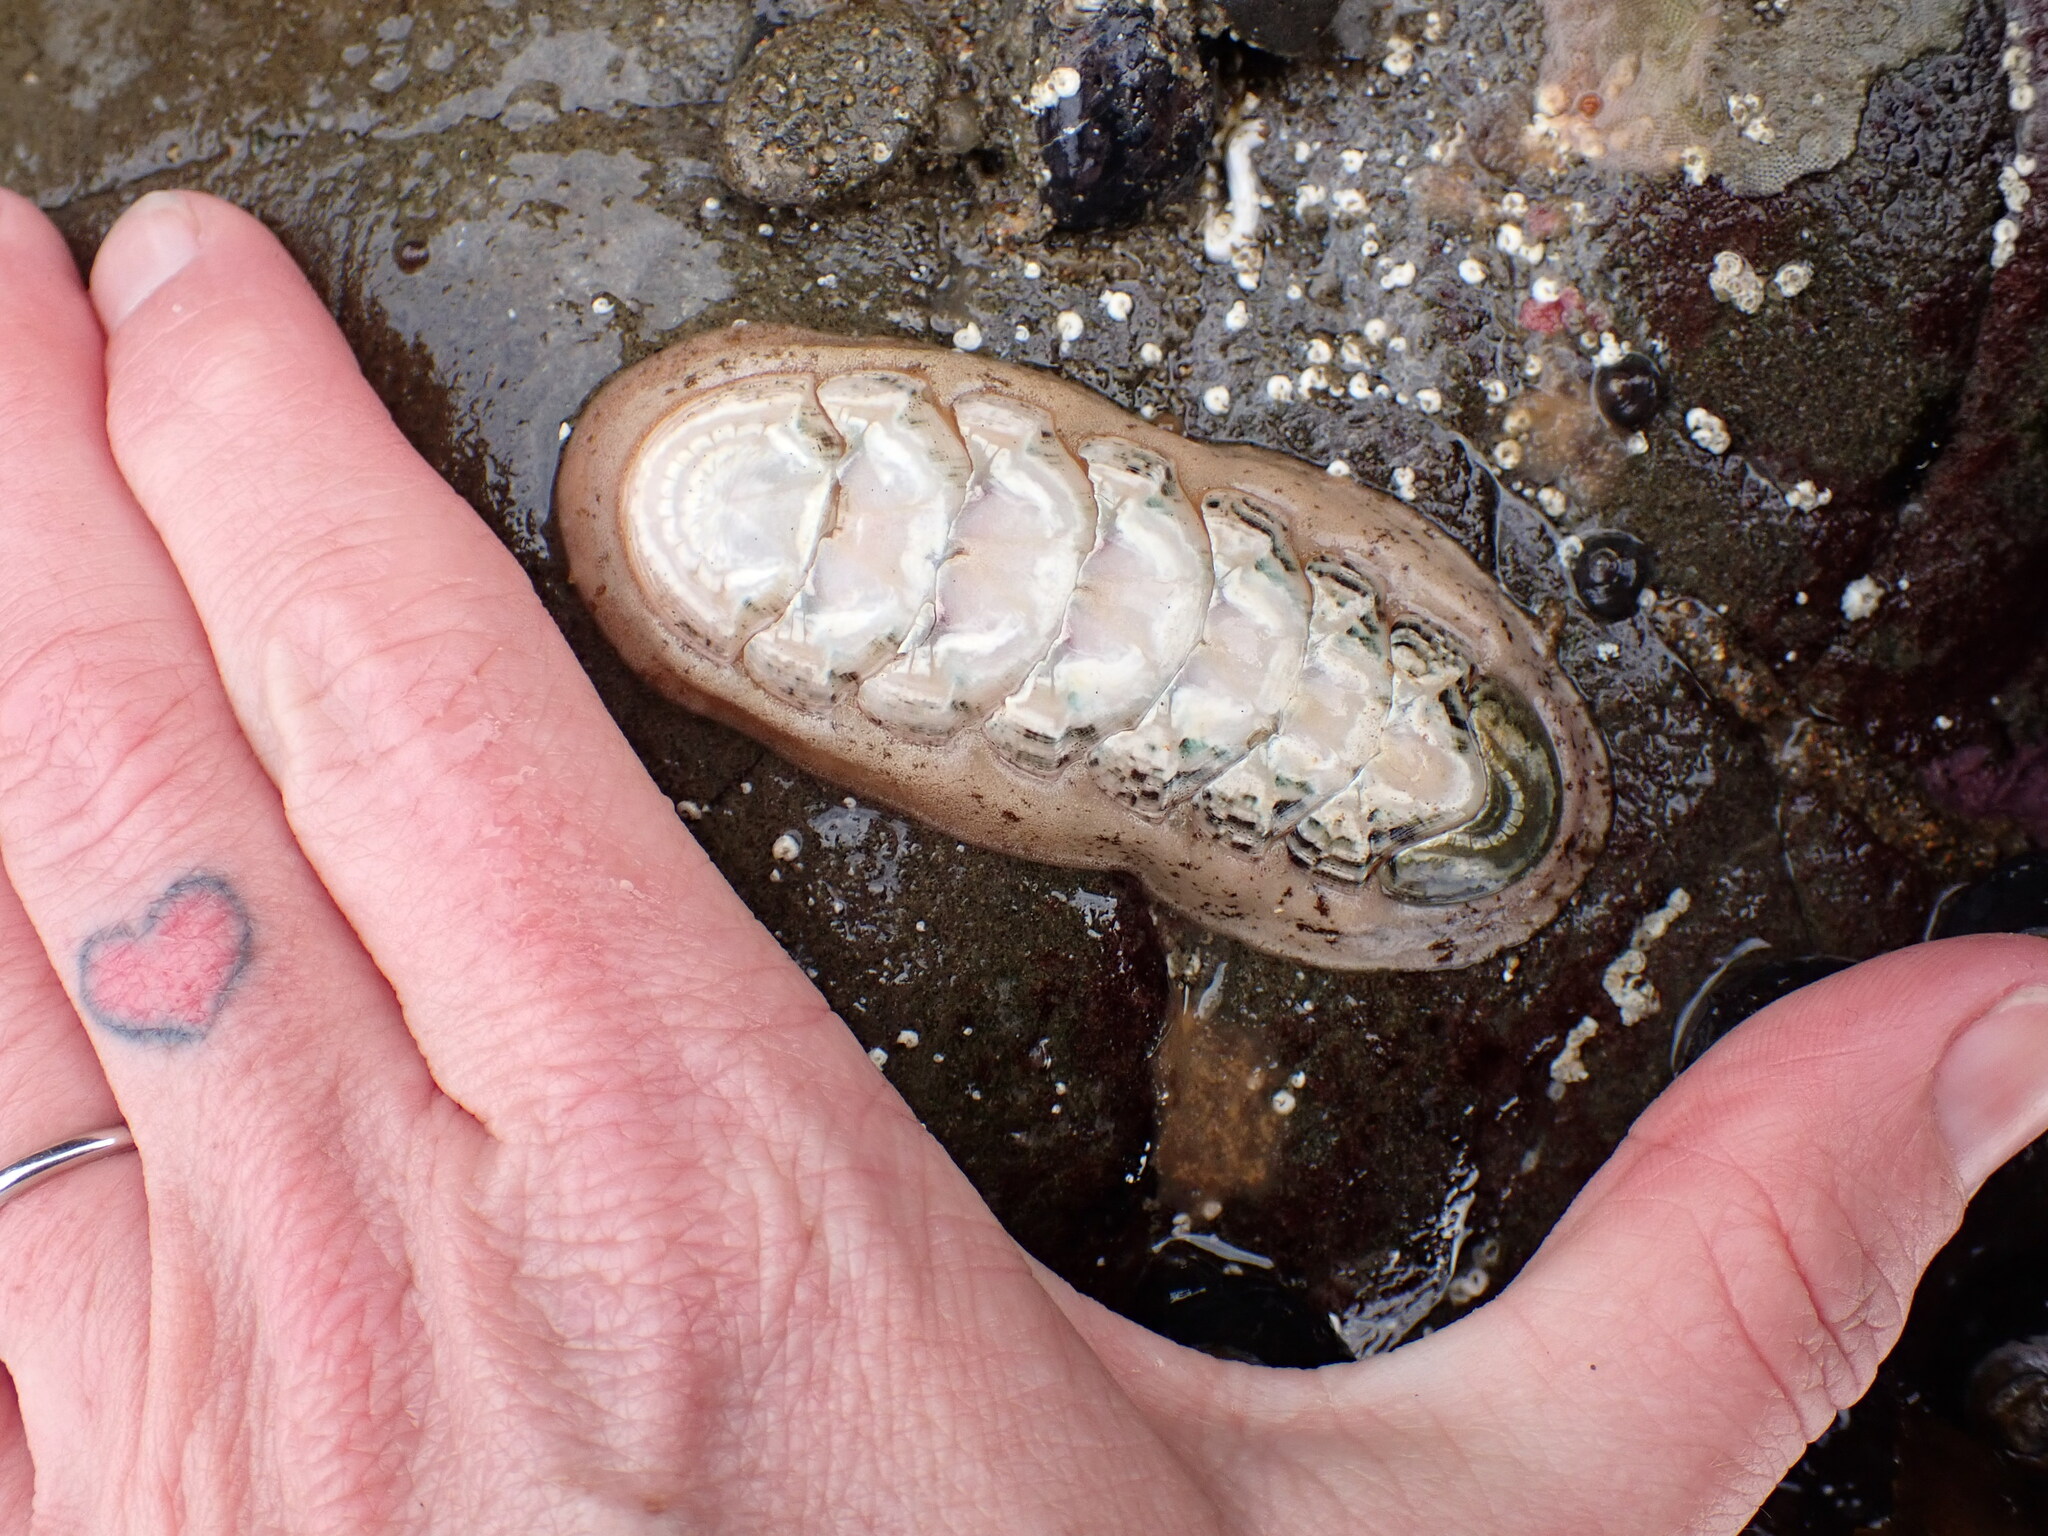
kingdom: Animalia
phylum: Mollusca
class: Polyplacophora
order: Chitonida
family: Ischnochitonidae
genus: Stenoplax
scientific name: Stenoplax heathiana
